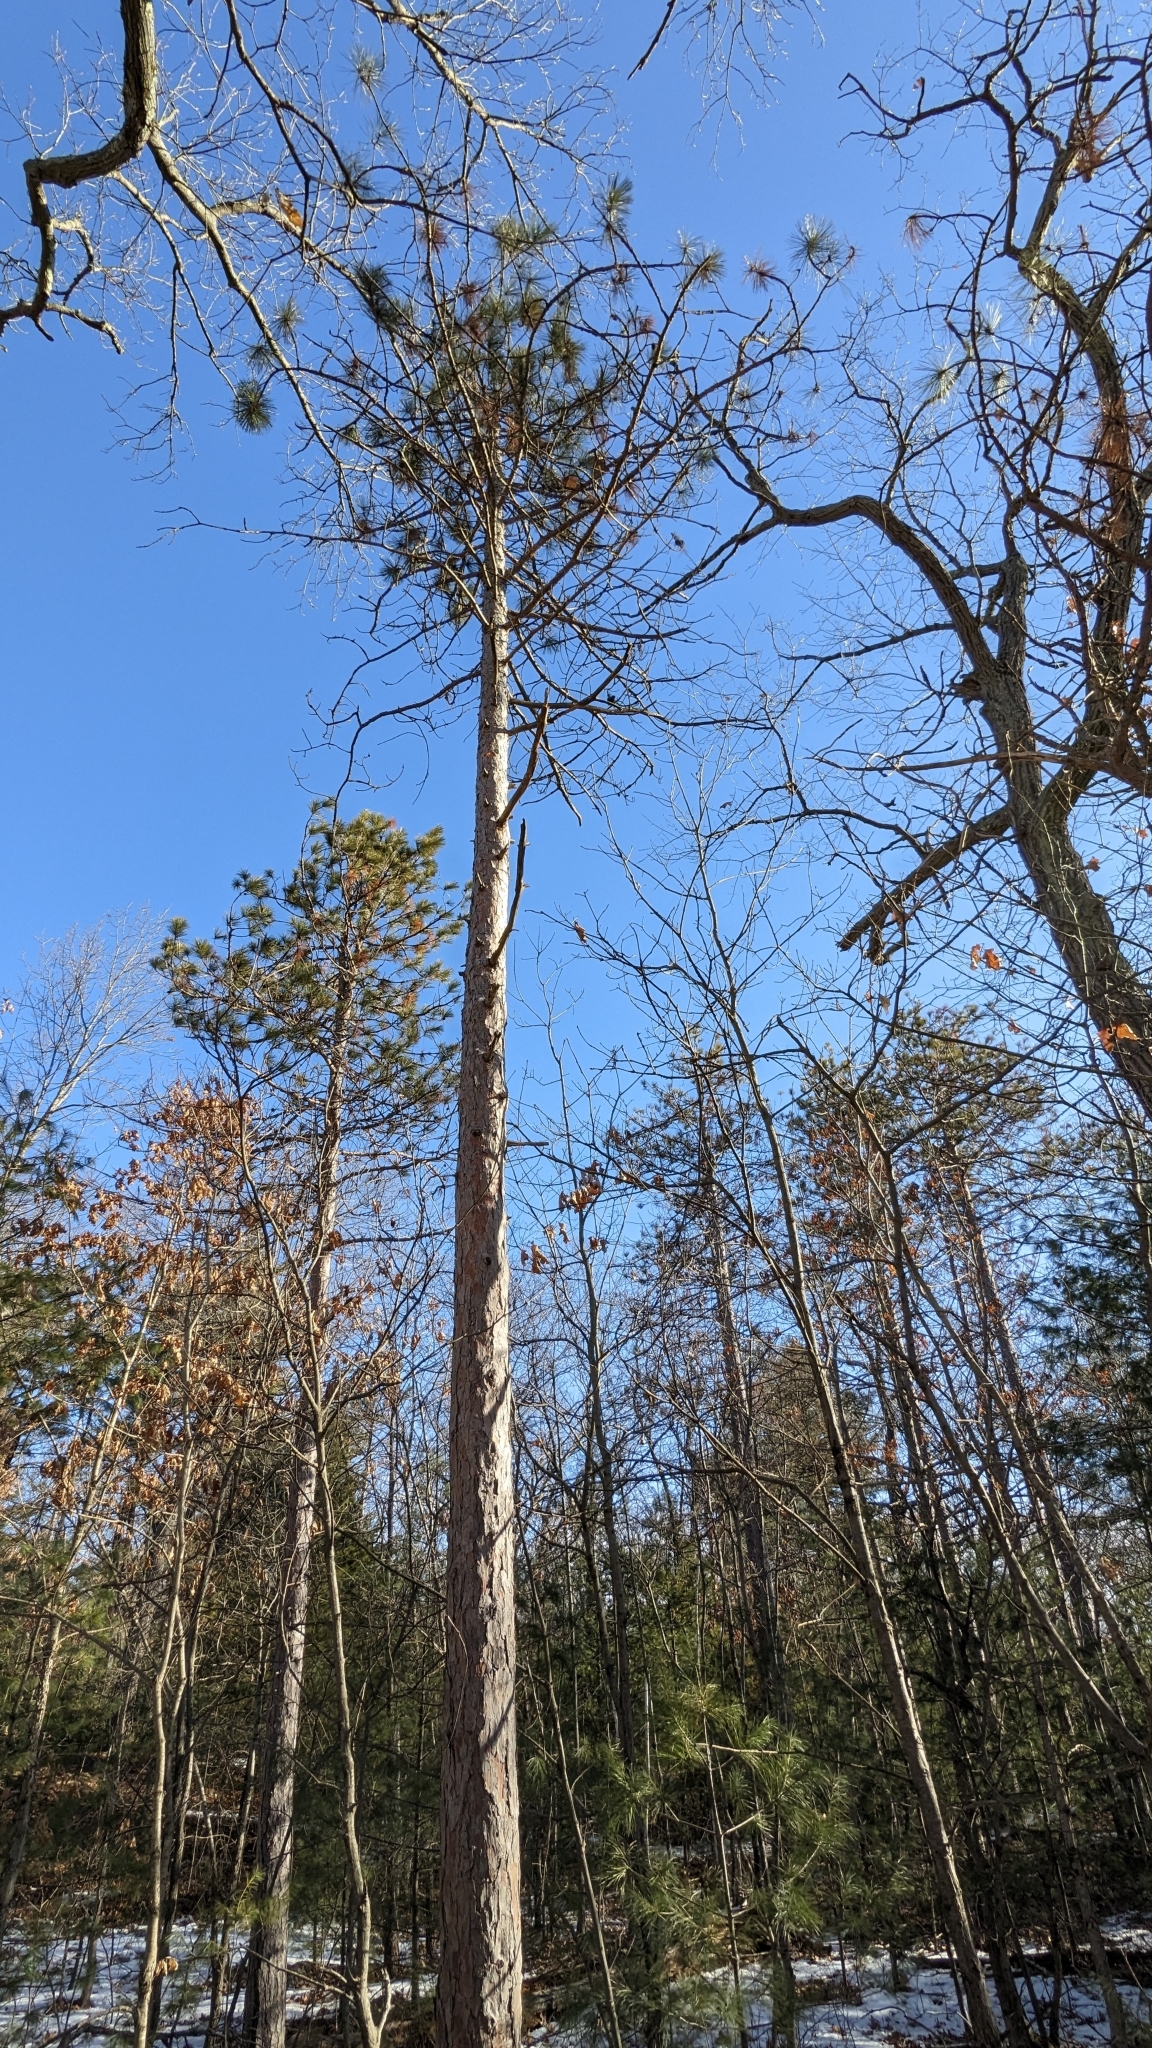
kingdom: Plantae
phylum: Tracheophyta
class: Pinopsida
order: Pinales
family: Pinaceae
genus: Pinus
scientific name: Pinus resinosa
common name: Norway pine
